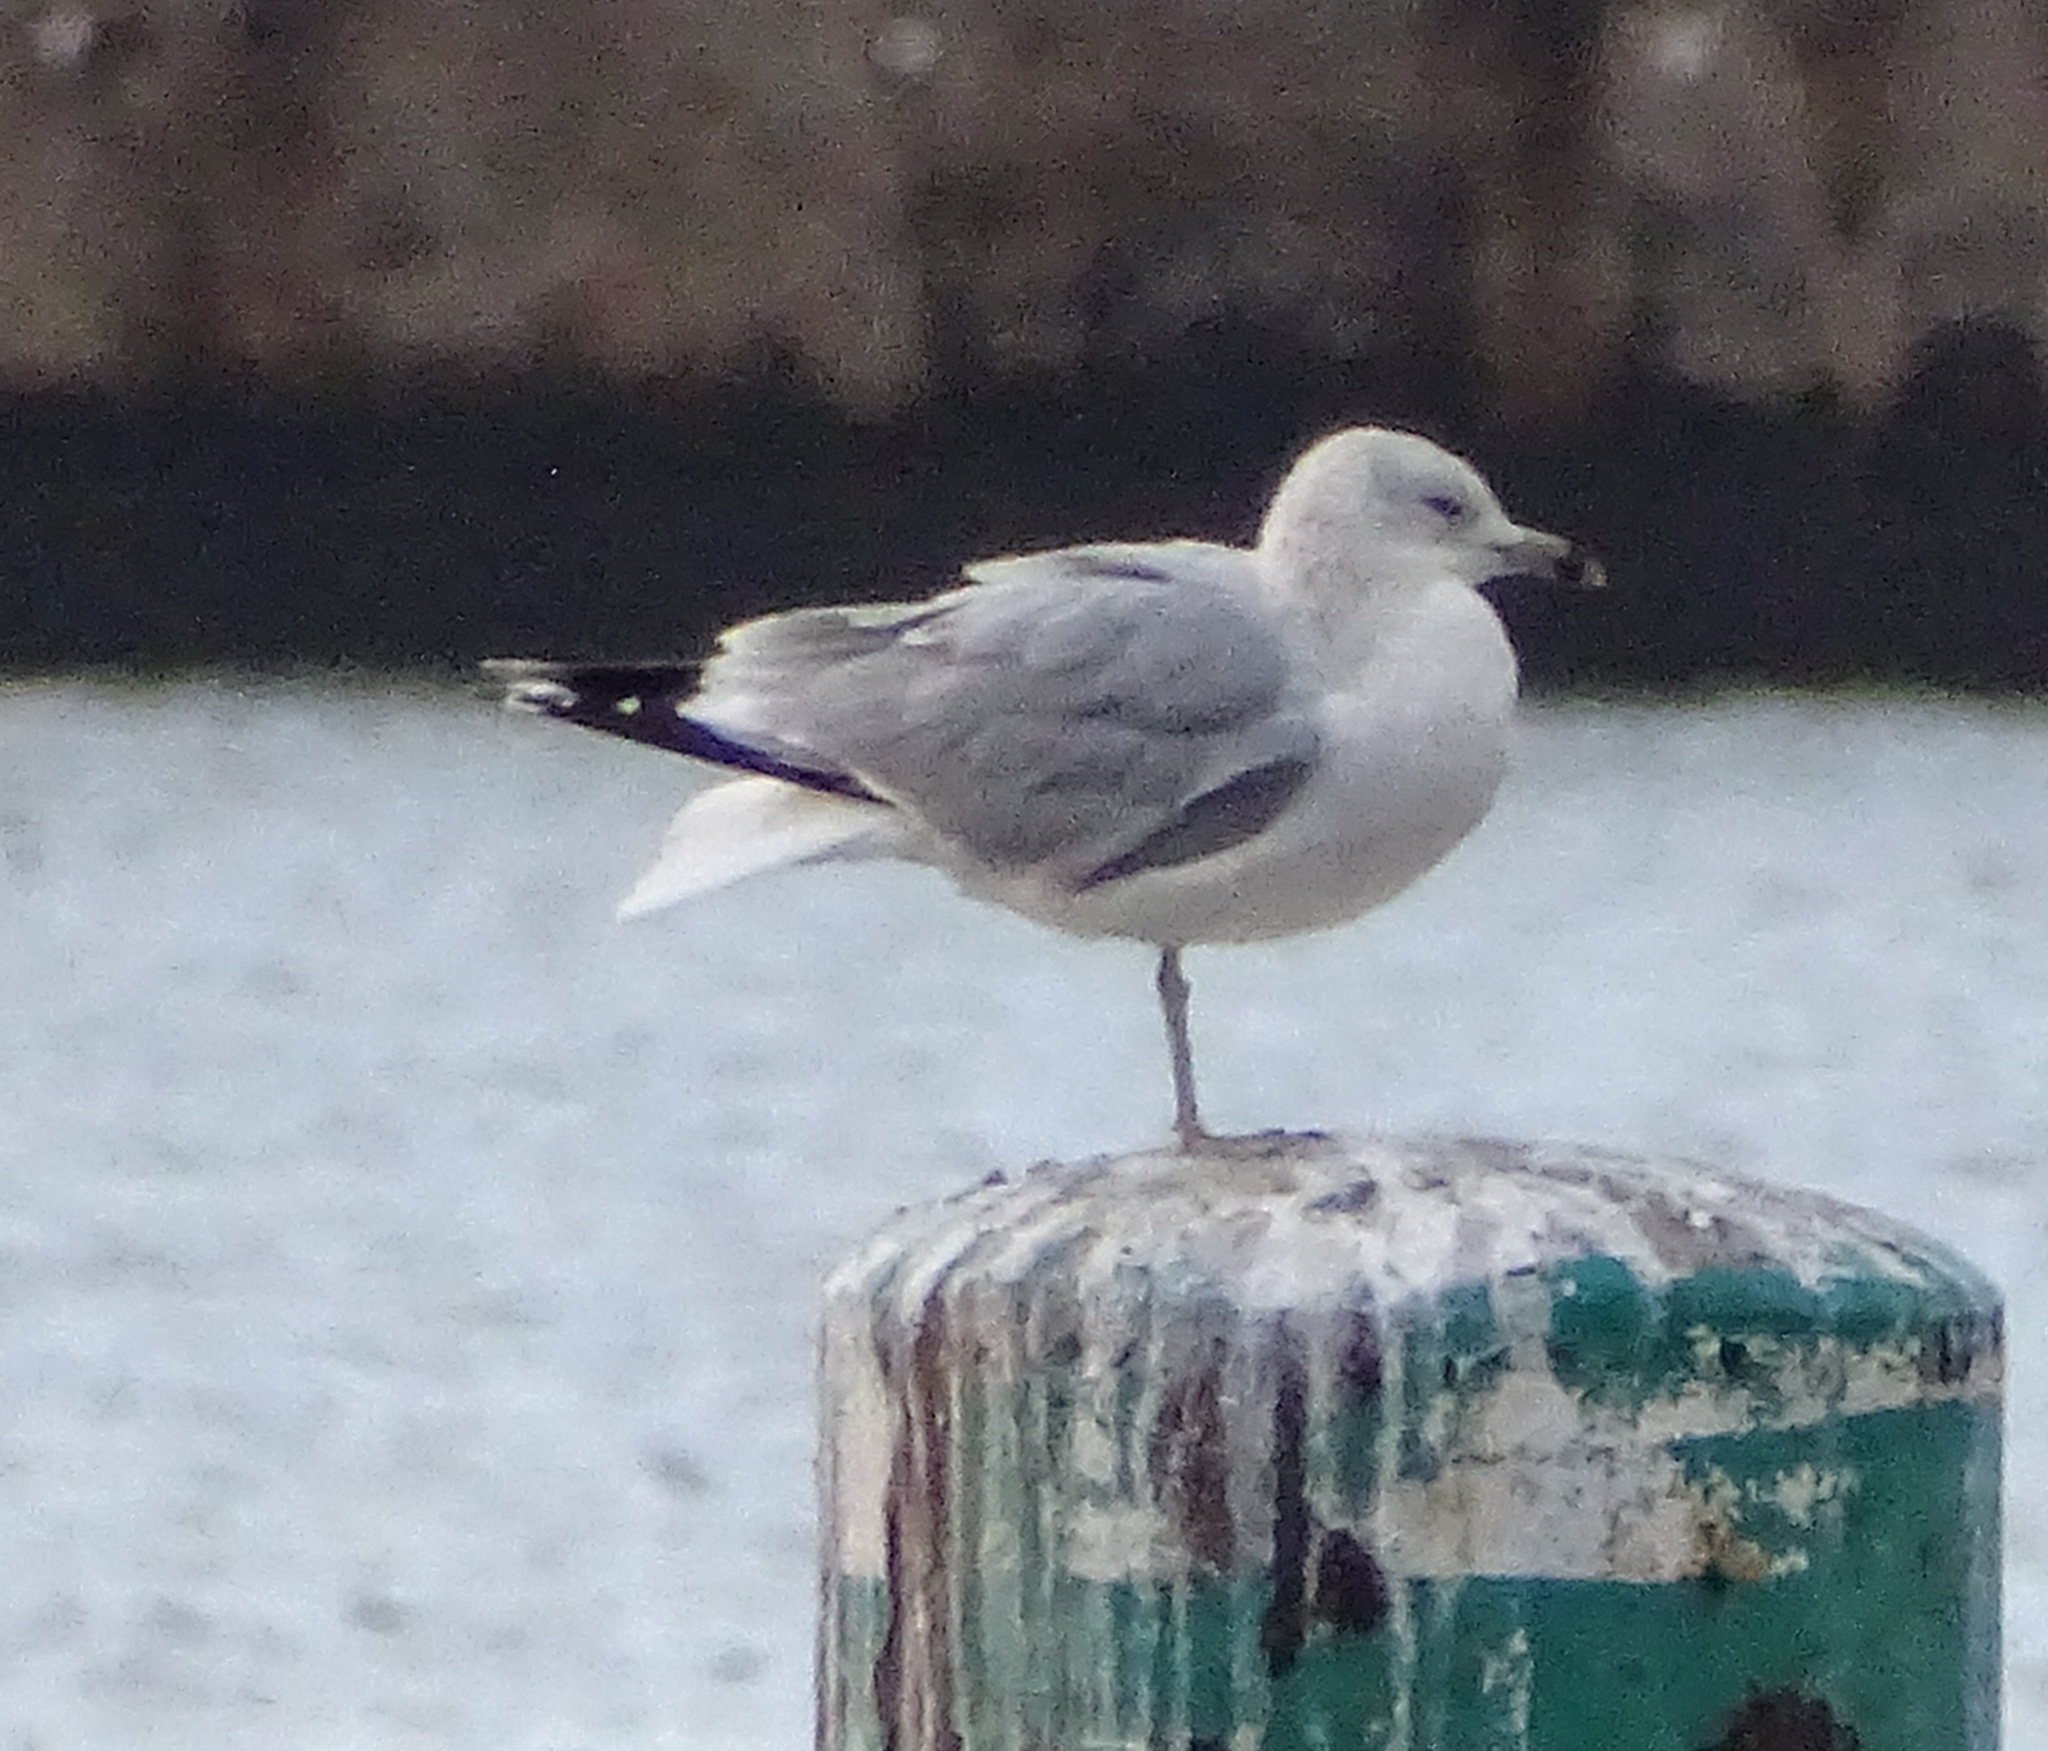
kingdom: Animalia
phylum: Chordata
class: Aves
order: Charadriiformes
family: Laridae
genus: Larus
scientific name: Larus delawarensis
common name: Ring-billed gull
